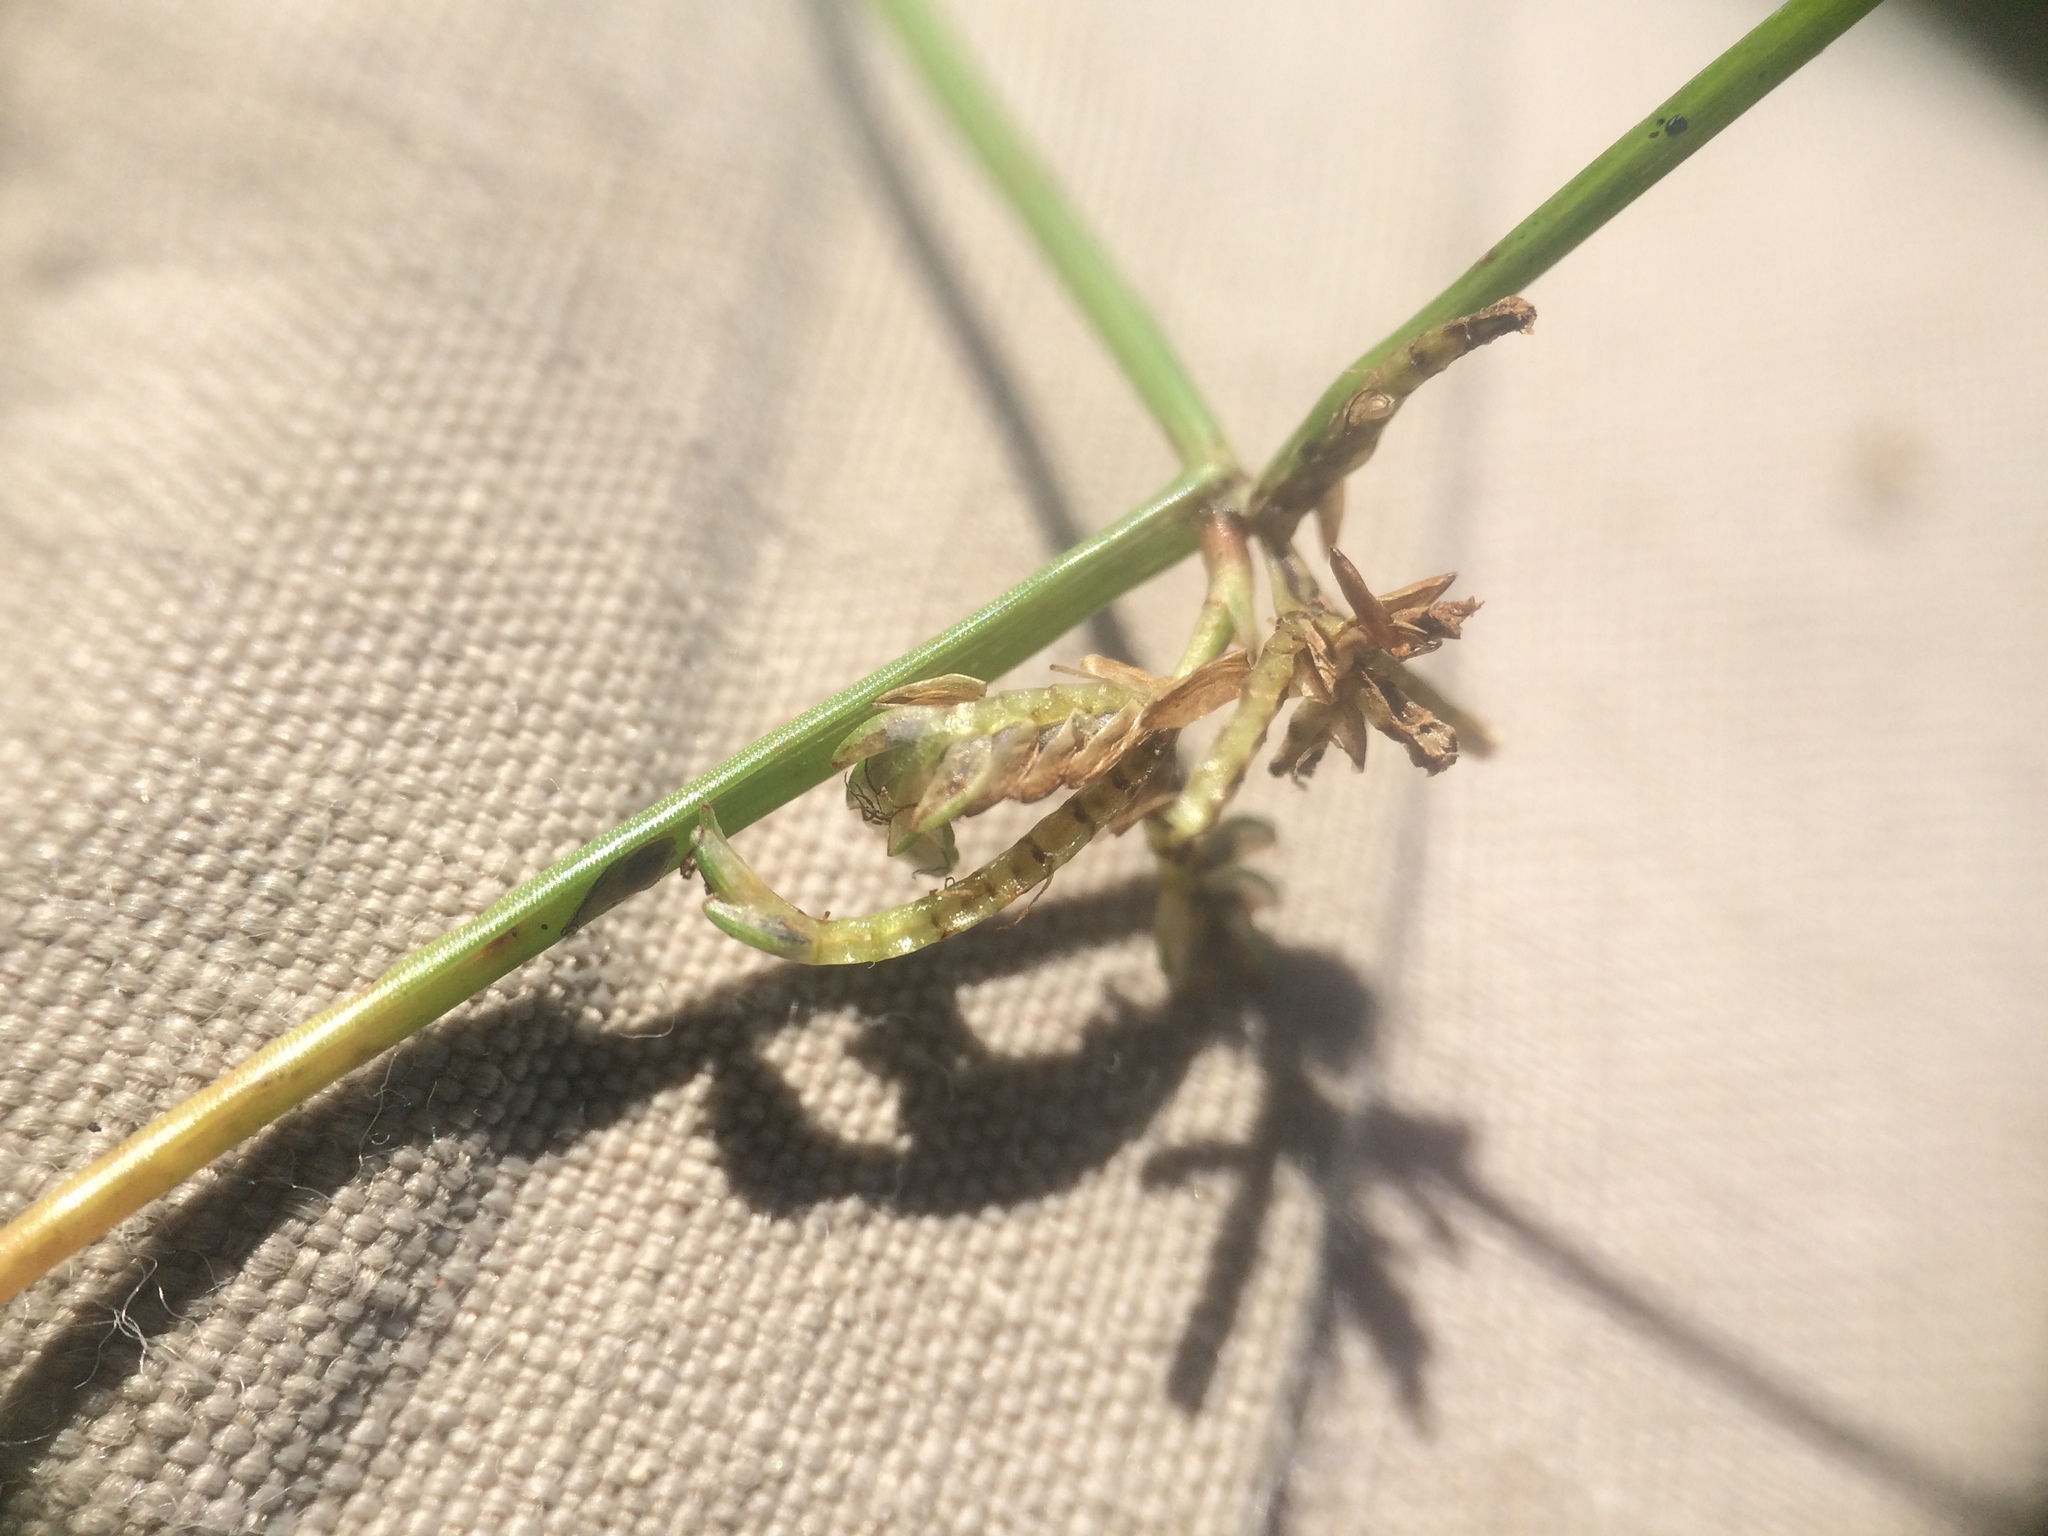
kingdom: Plantae
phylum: Tracheophyta
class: Liliopsida
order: Poales
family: Cyperaceae
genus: Cyperus
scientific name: Cyperus bipartitus
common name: Brook flatsedge
